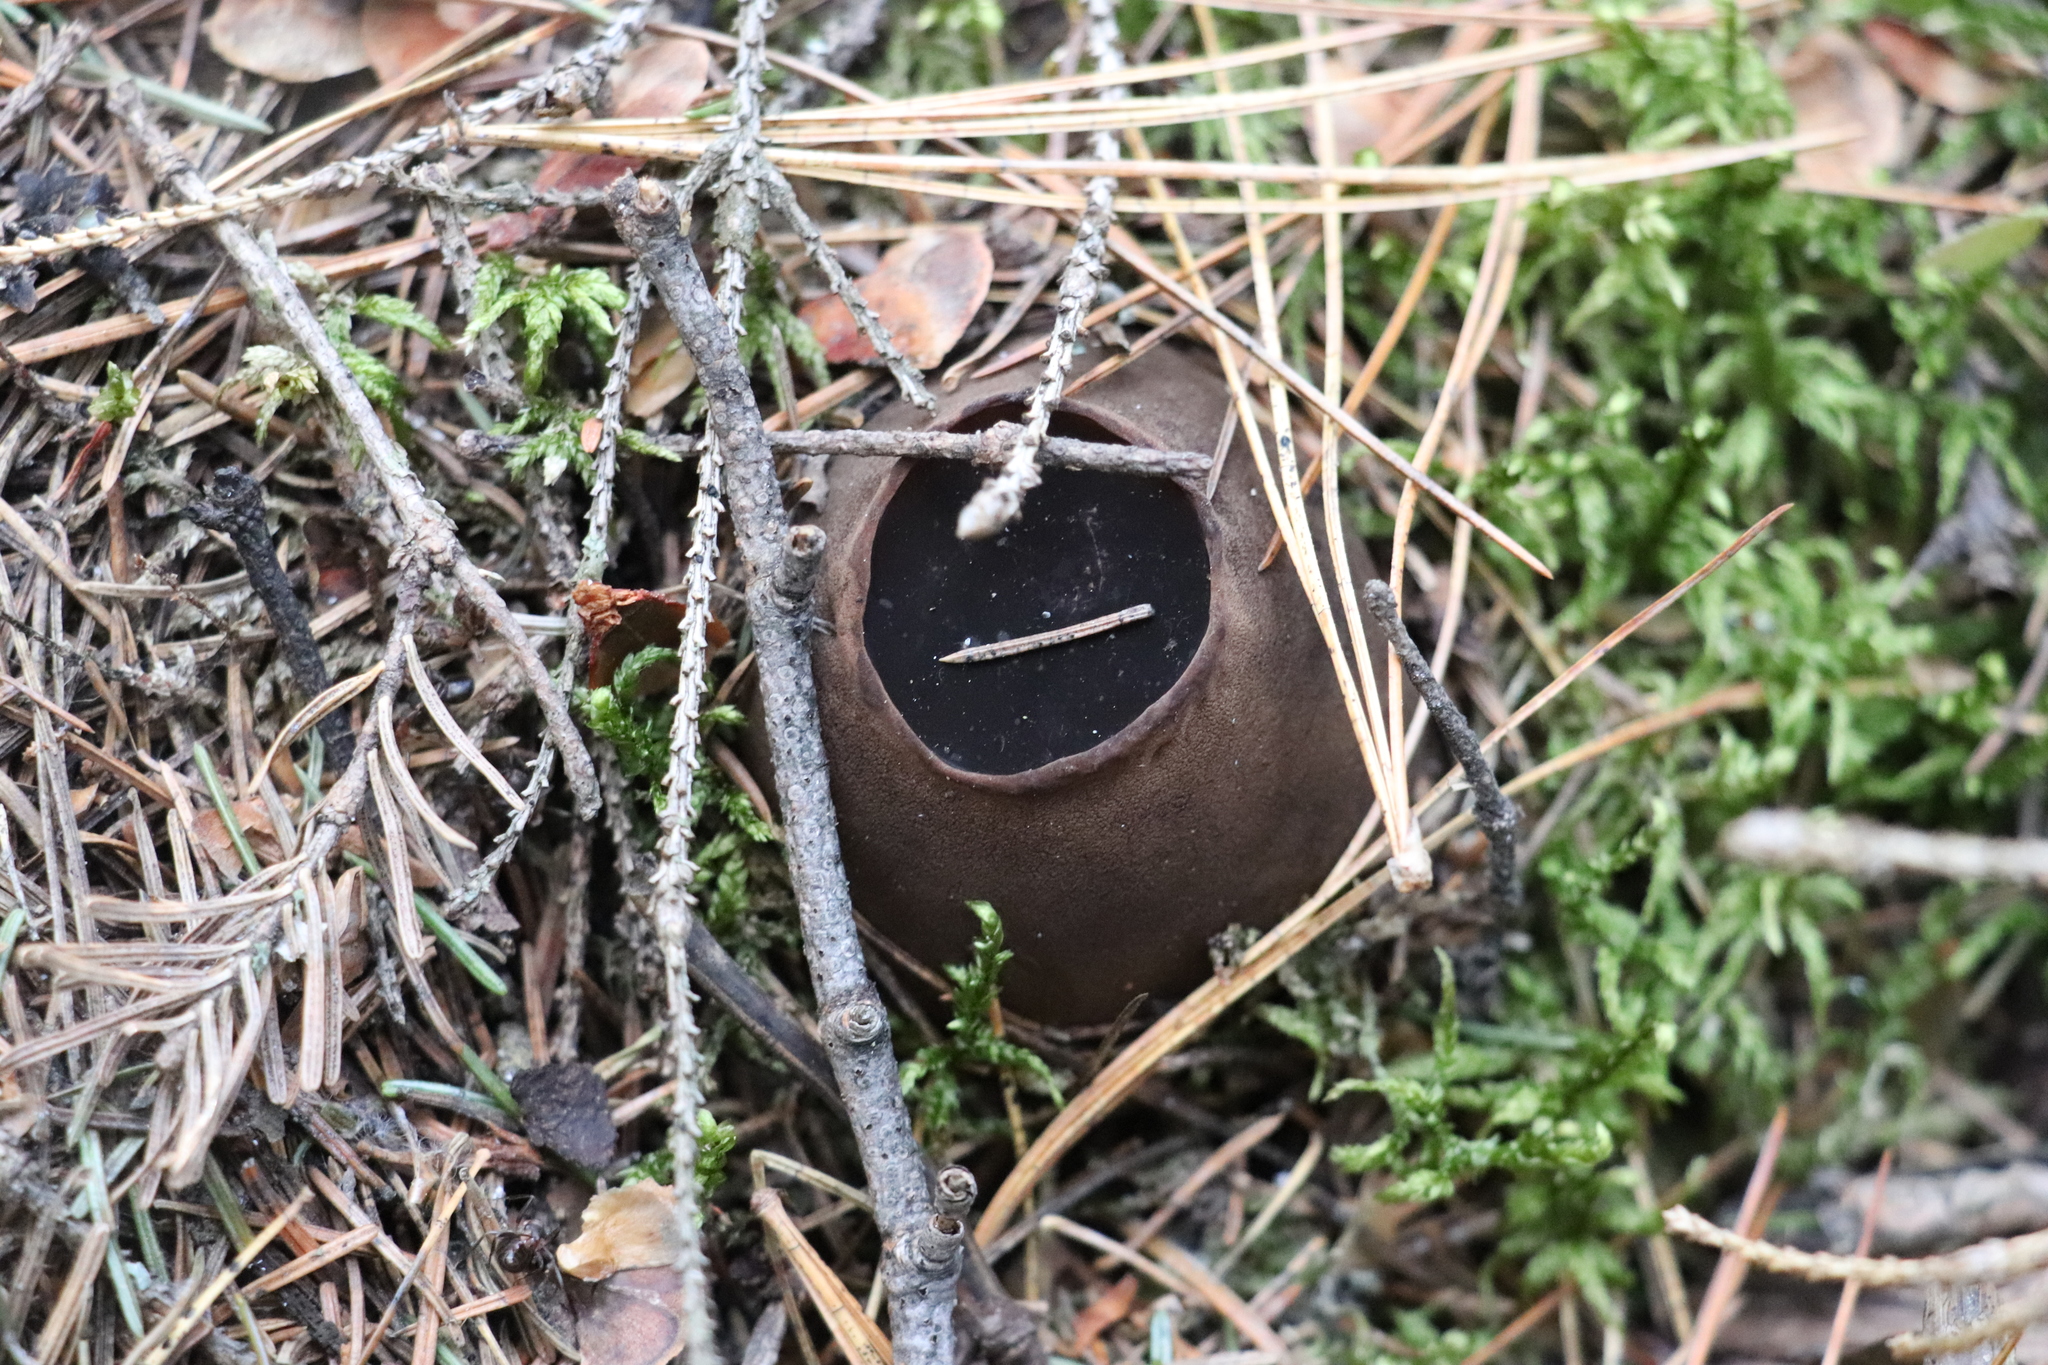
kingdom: Fungi
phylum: Ascomycota
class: Pezizomycetes
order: Pezizales
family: Sarcosomataceae
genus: Sarcosoma
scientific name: Sarcosoma globosum
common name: Charred-pancake cup
